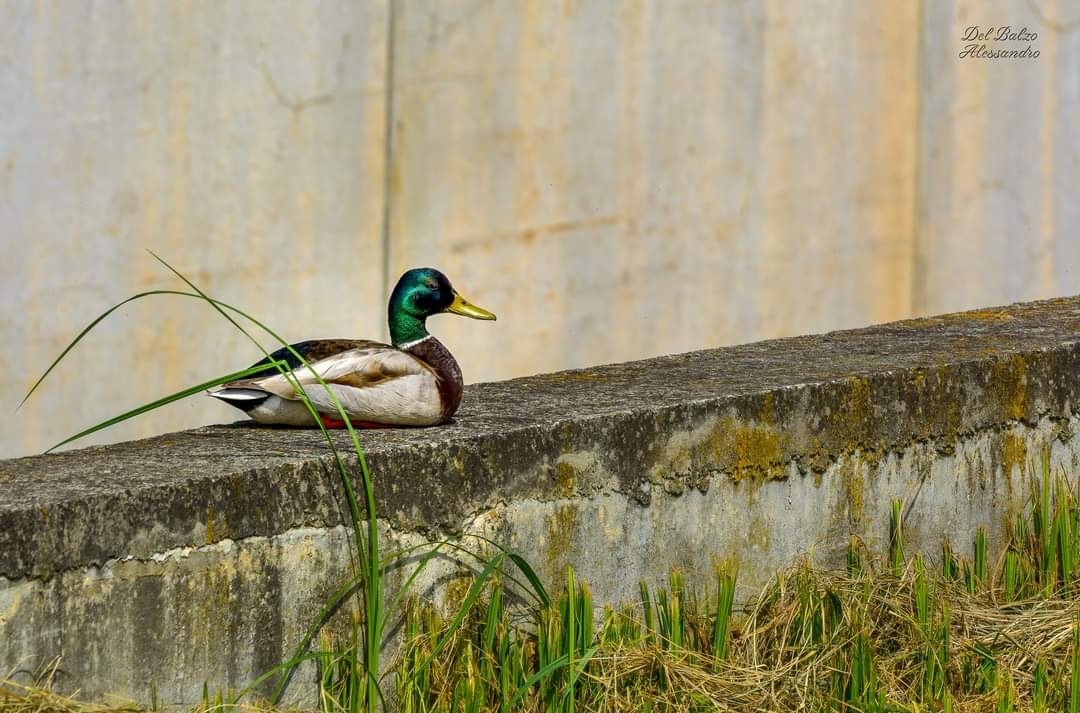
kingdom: Animalia
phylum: Chordata
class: Aves
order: Anseriformes
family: Anatidae
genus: Anas
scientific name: Anas platyrhynchos
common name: Mallard
